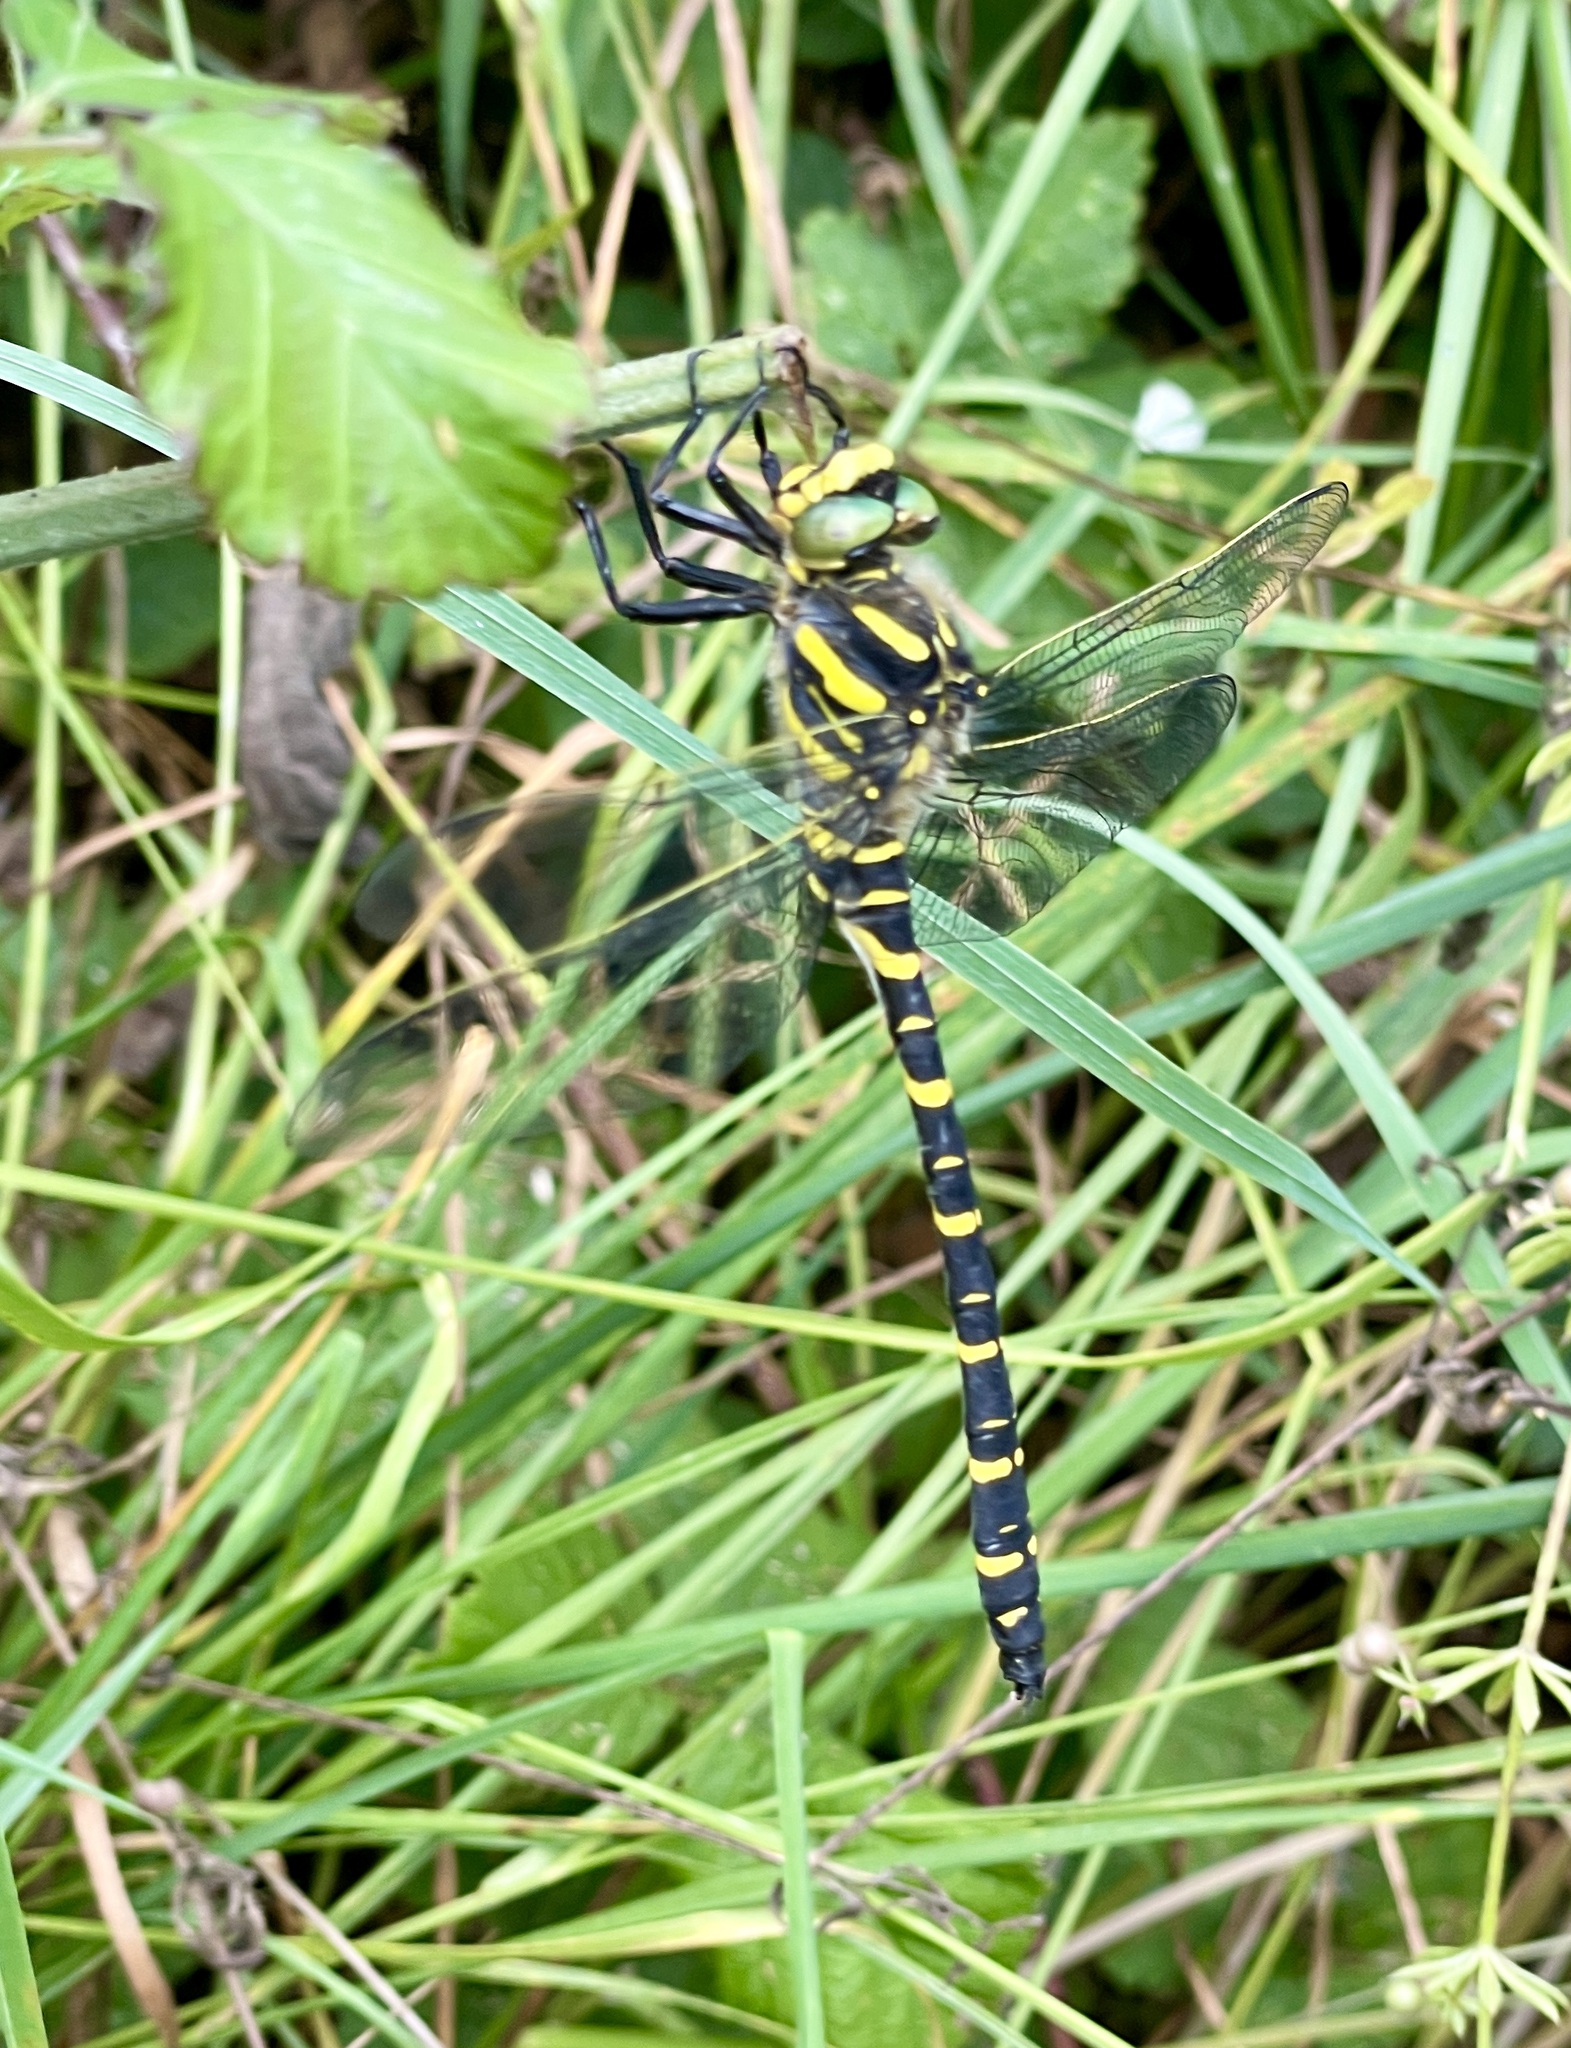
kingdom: Animalia
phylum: Arthropoda
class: Insecta
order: Odonata
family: Cordulegastridae
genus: Cordulegaster
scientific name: Cordulegaster boltonii
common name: Golden-ringed dragonfly
